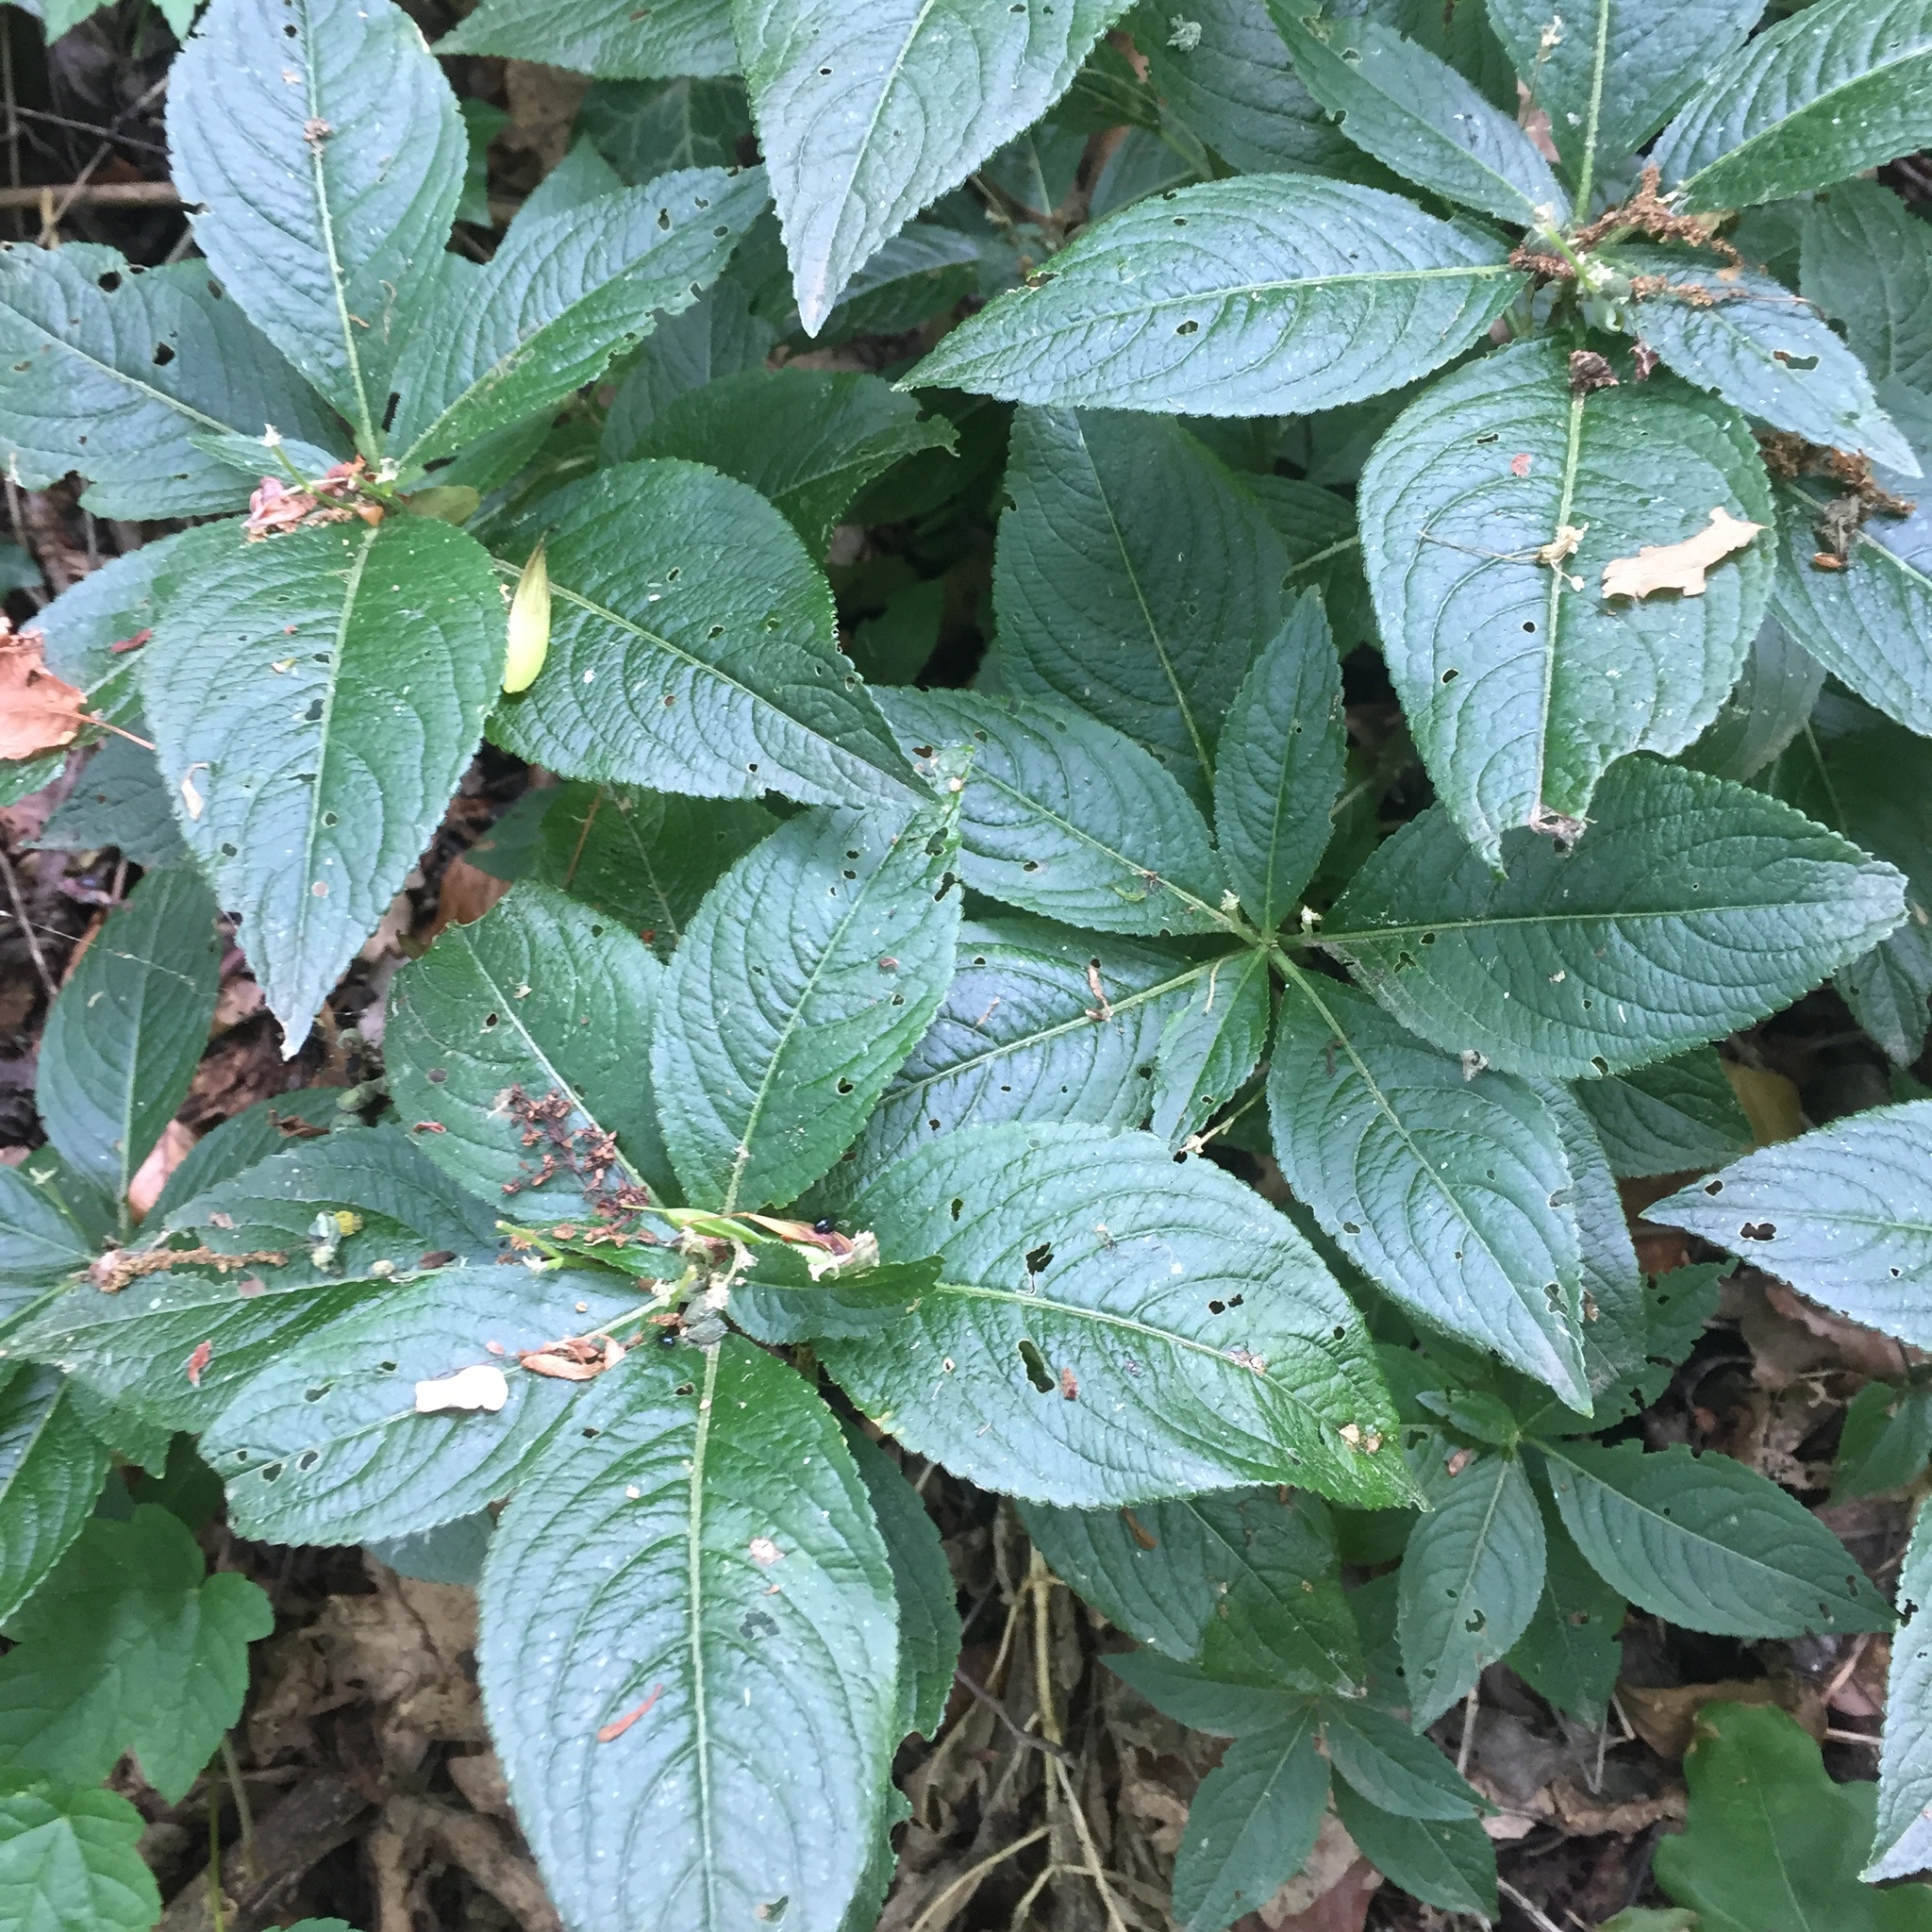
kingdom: Plantae
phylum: Tracheophyta
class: Magnoliopsida
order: Malpighiales
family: Euphorbiaceae
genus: Mercurialis
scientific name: Mercurialis perennis
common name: Dog mercury
